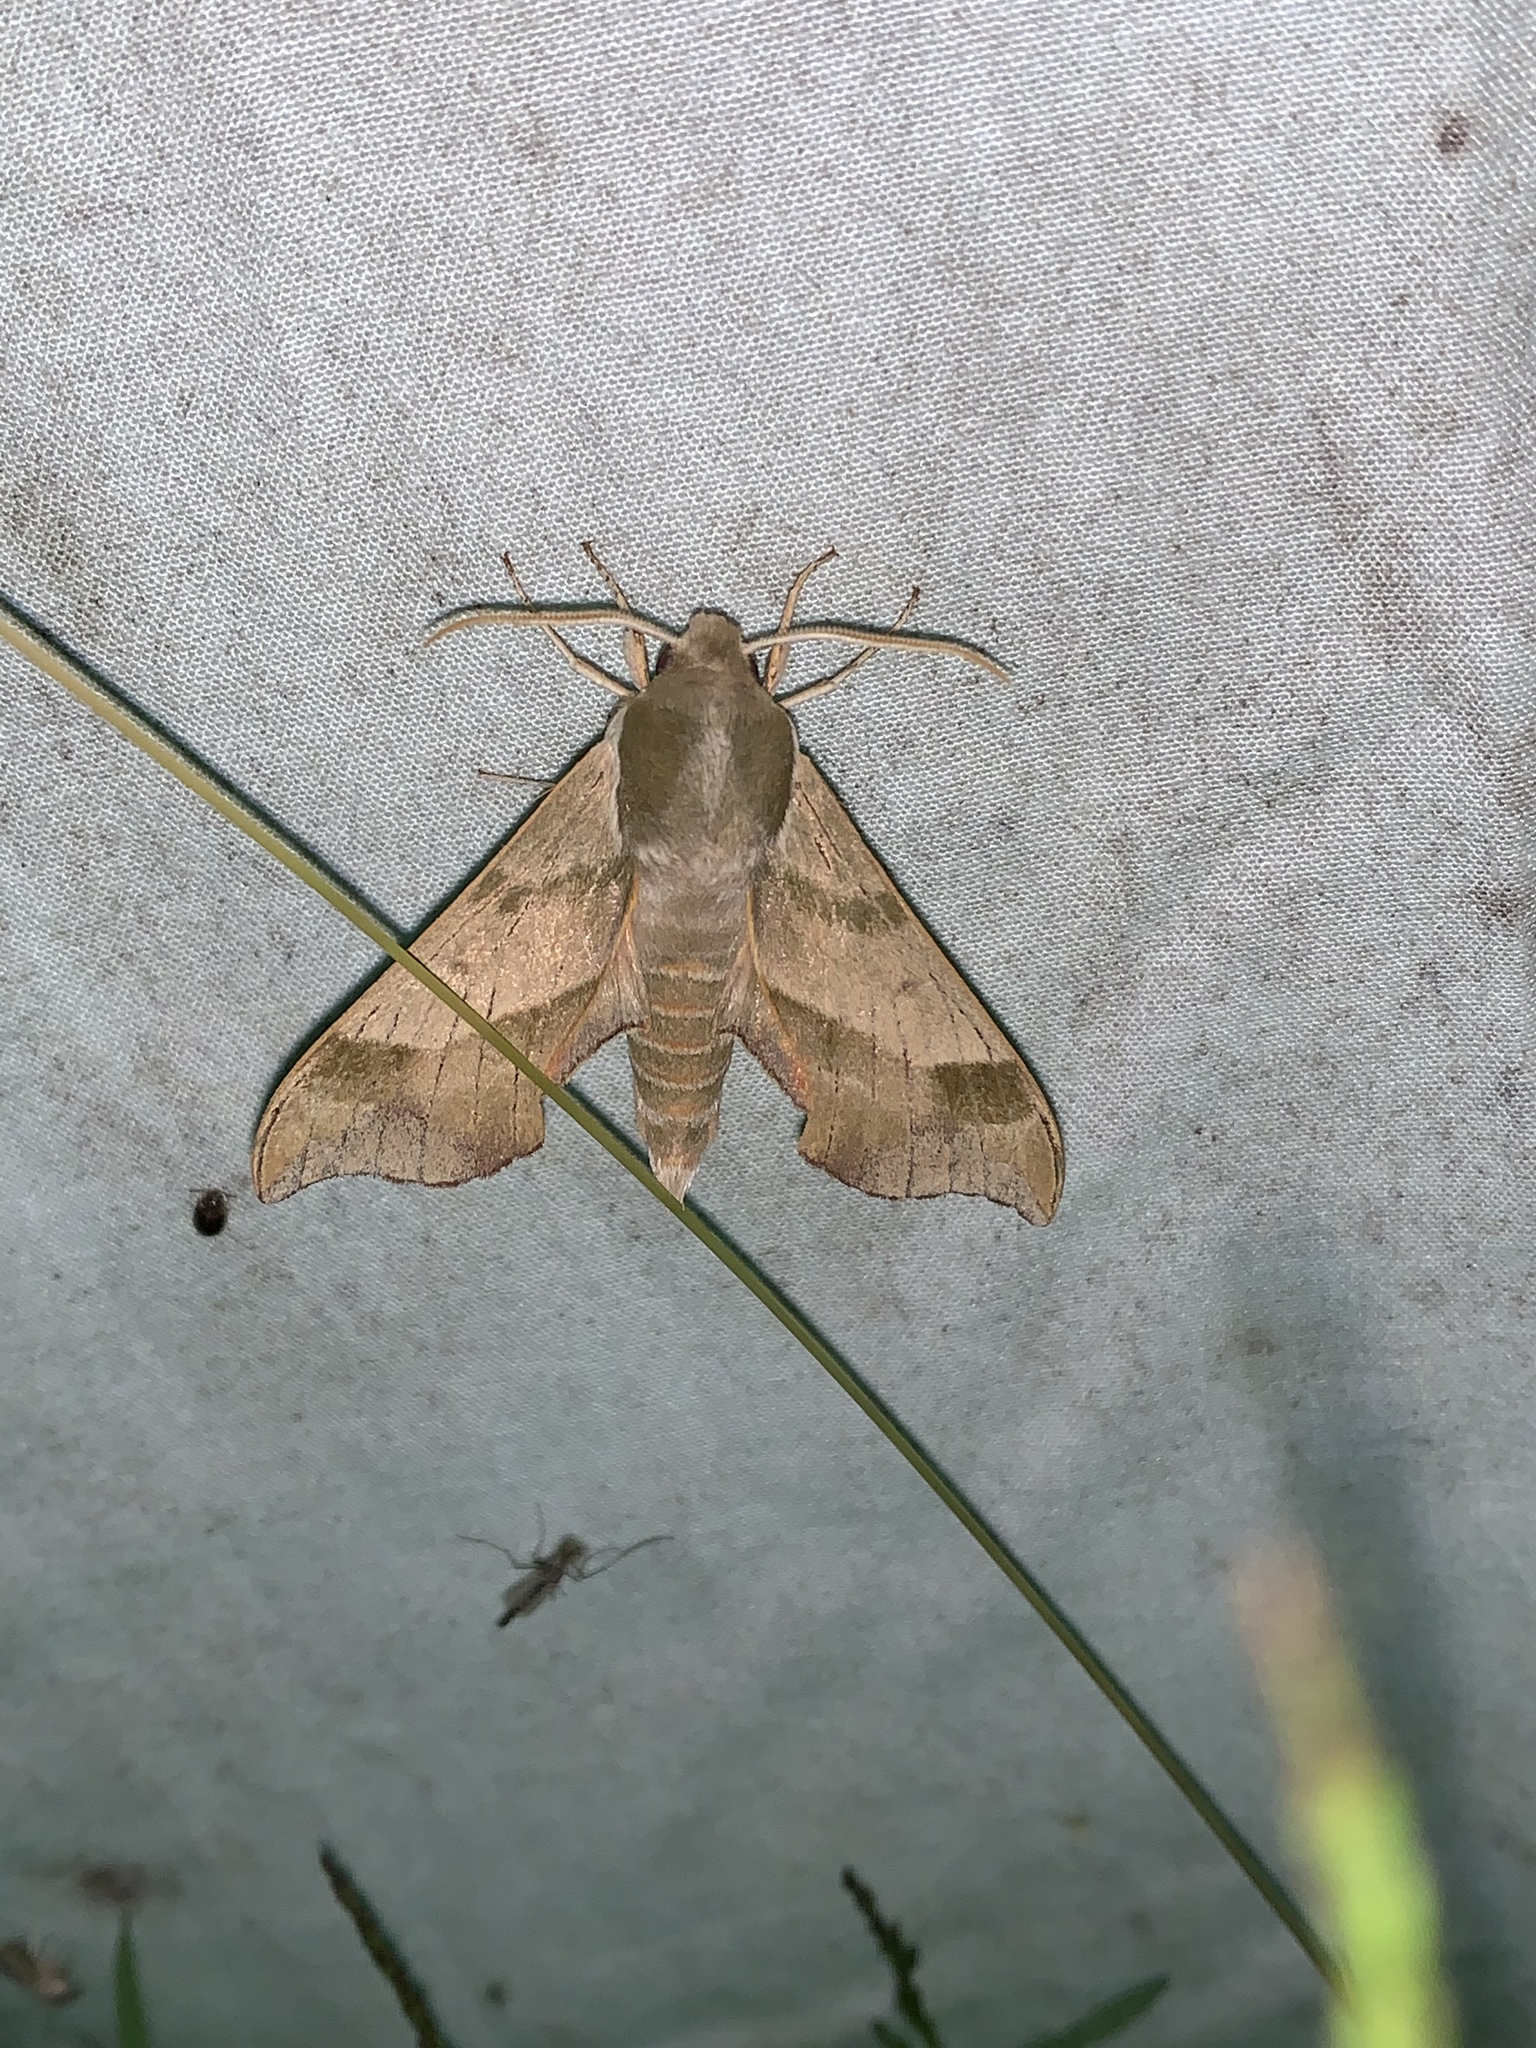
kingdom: Animalia
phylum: Arthropoda
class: Insecta
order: Lepidoptera
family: Sphingidae
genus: Darapsa
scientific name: Darapsa myron
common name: Hog sphinx
